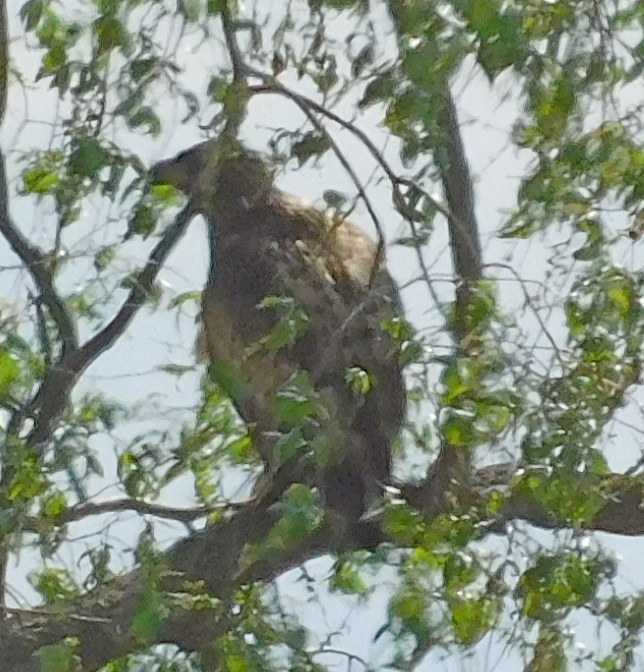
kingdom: Animalia
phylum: Chordata
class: Aves
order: Accipitriformes
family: Accipitridae
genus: Haliaeetus
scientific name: Haliaeetus albicilla
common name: White-tailed eagle
